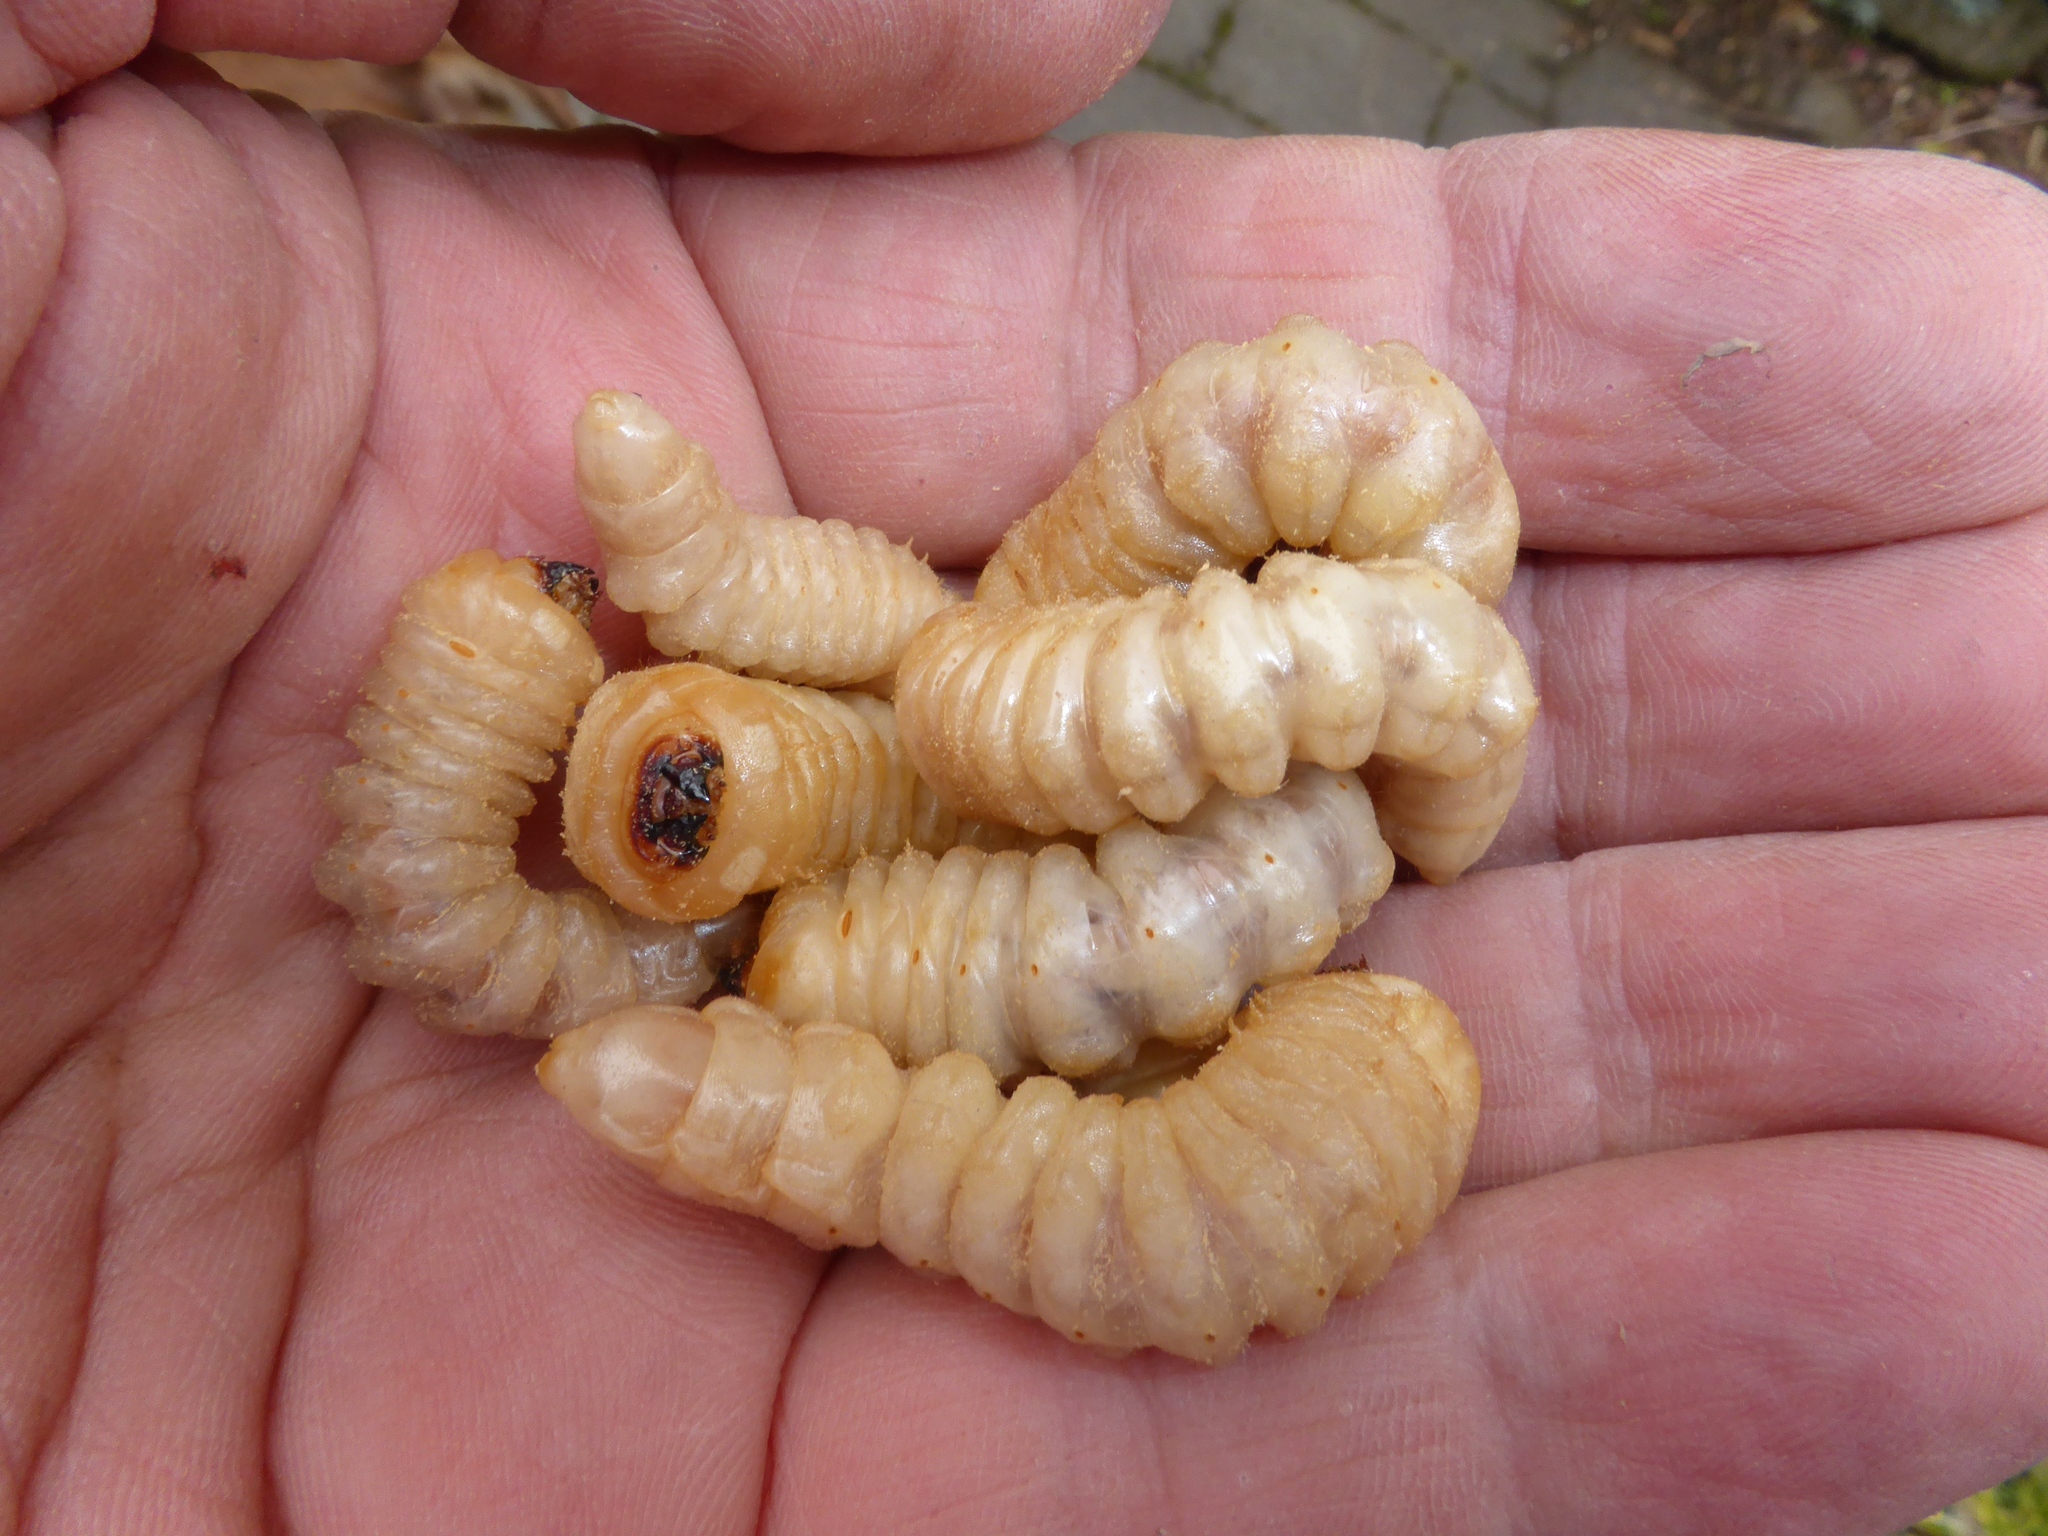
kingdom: Animalia
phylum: Arthropoda
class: Insecta
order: Coleoptera
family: Cerambycidae
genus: Prionoplus
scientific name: Prionoplus reticularis
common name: Huhu beetle
